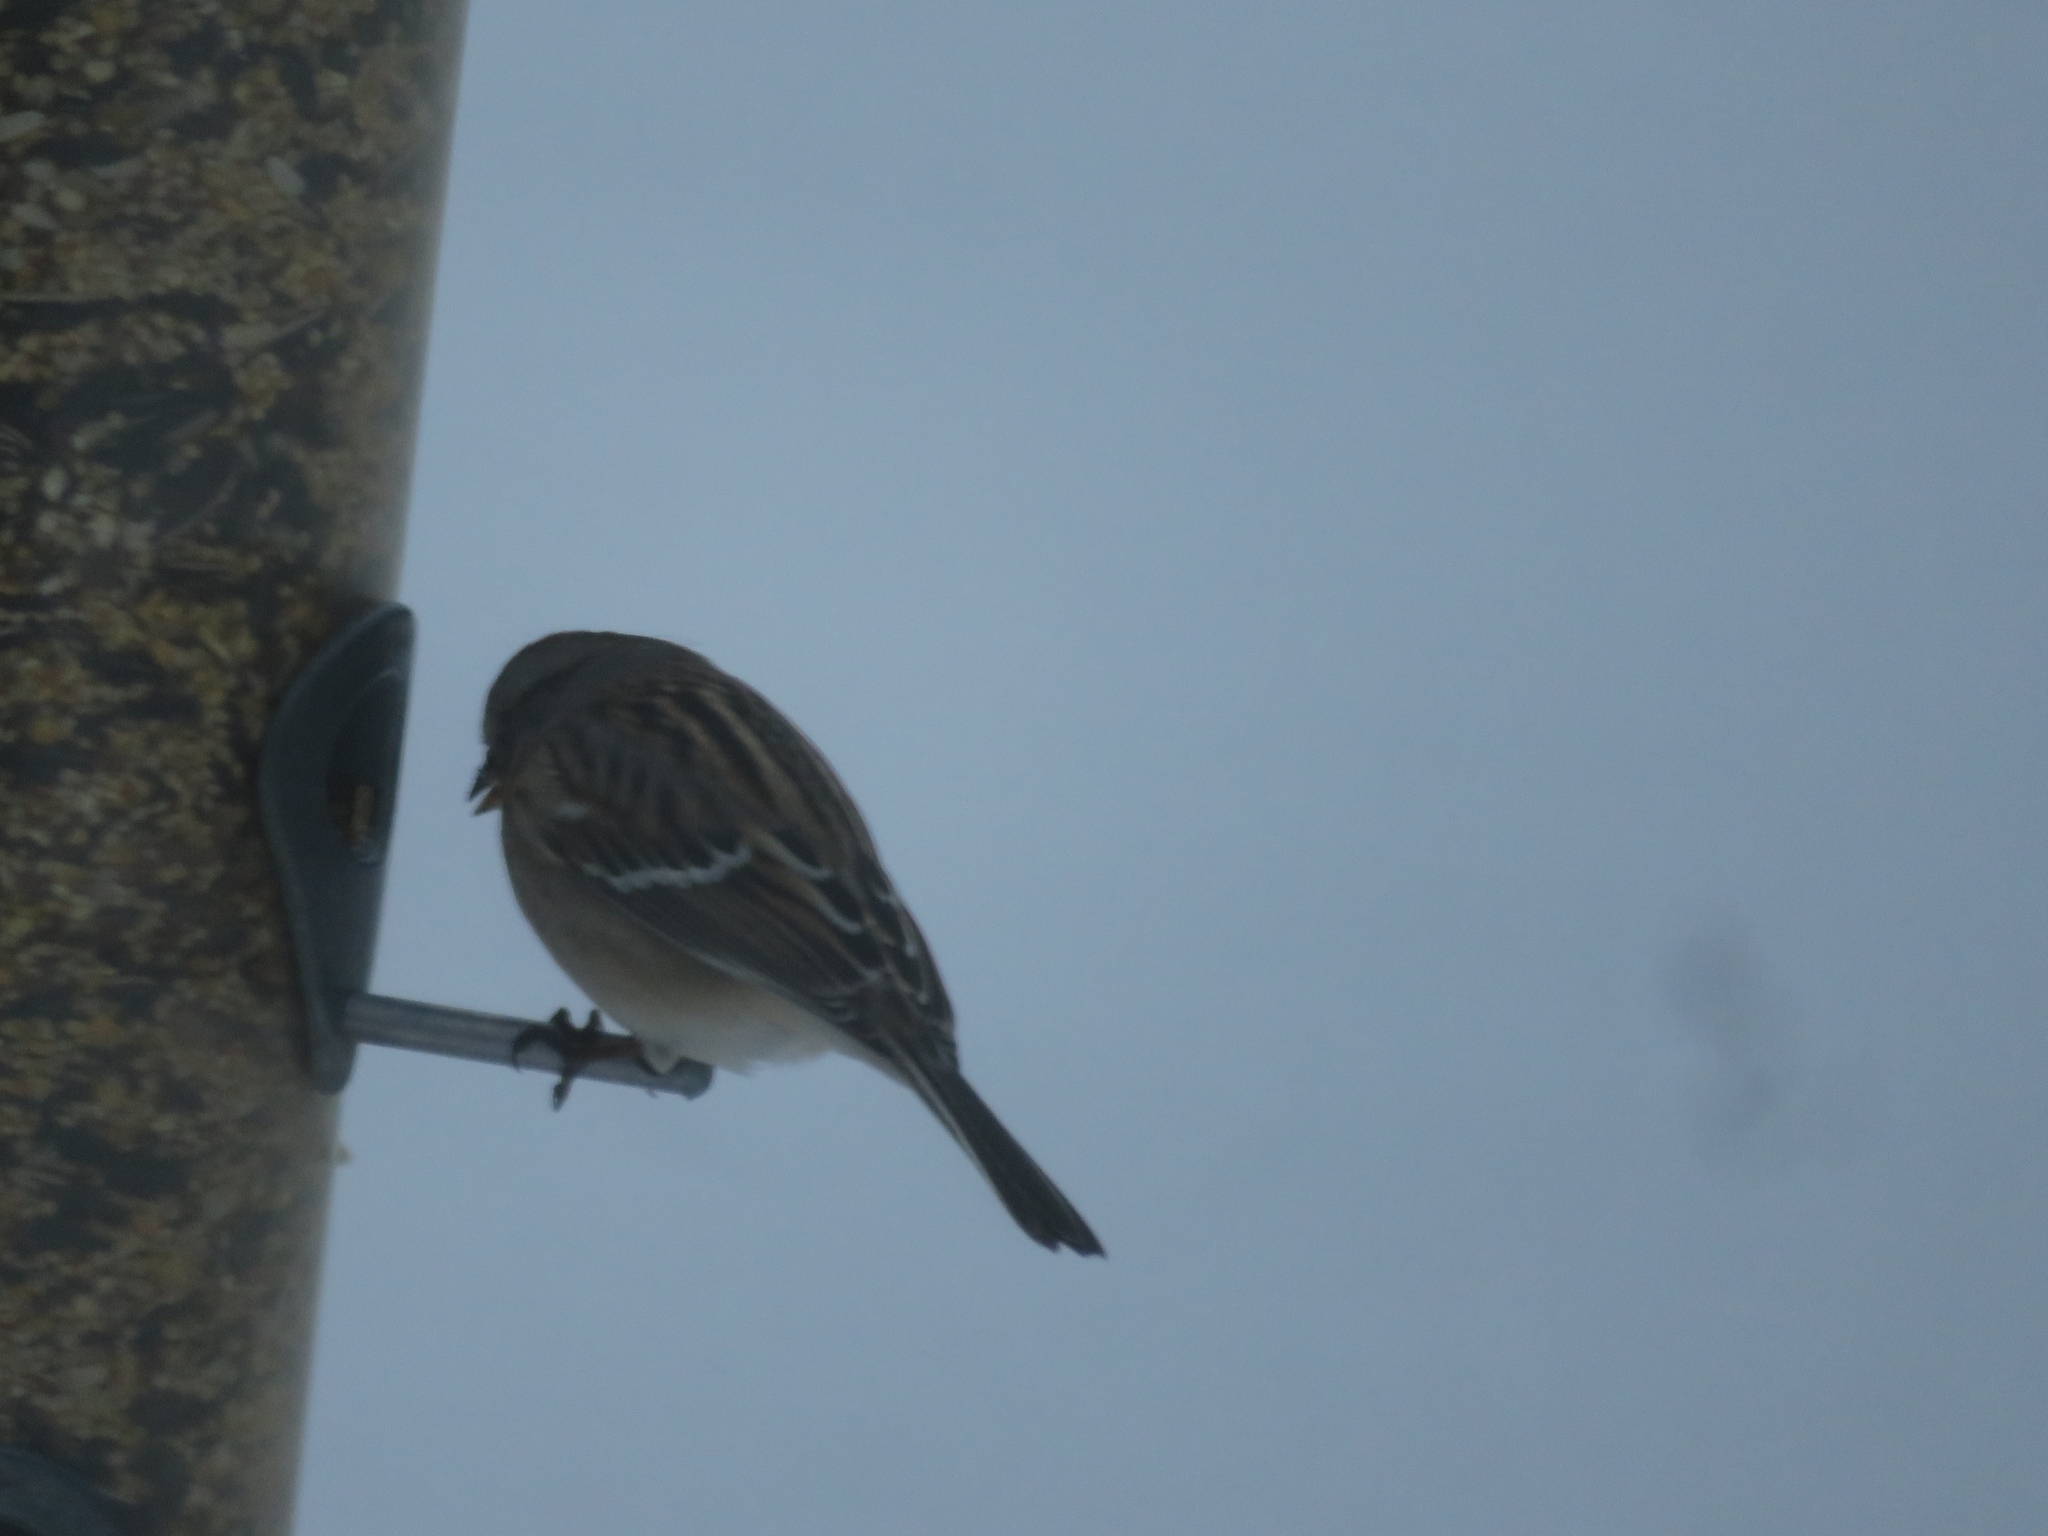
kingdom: Animalia
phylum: Chordata
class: Aves
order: Passeriformes
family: Passerellidae
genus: Spizelloides
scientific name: Spizelloides arborea
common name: American tree sparrow
